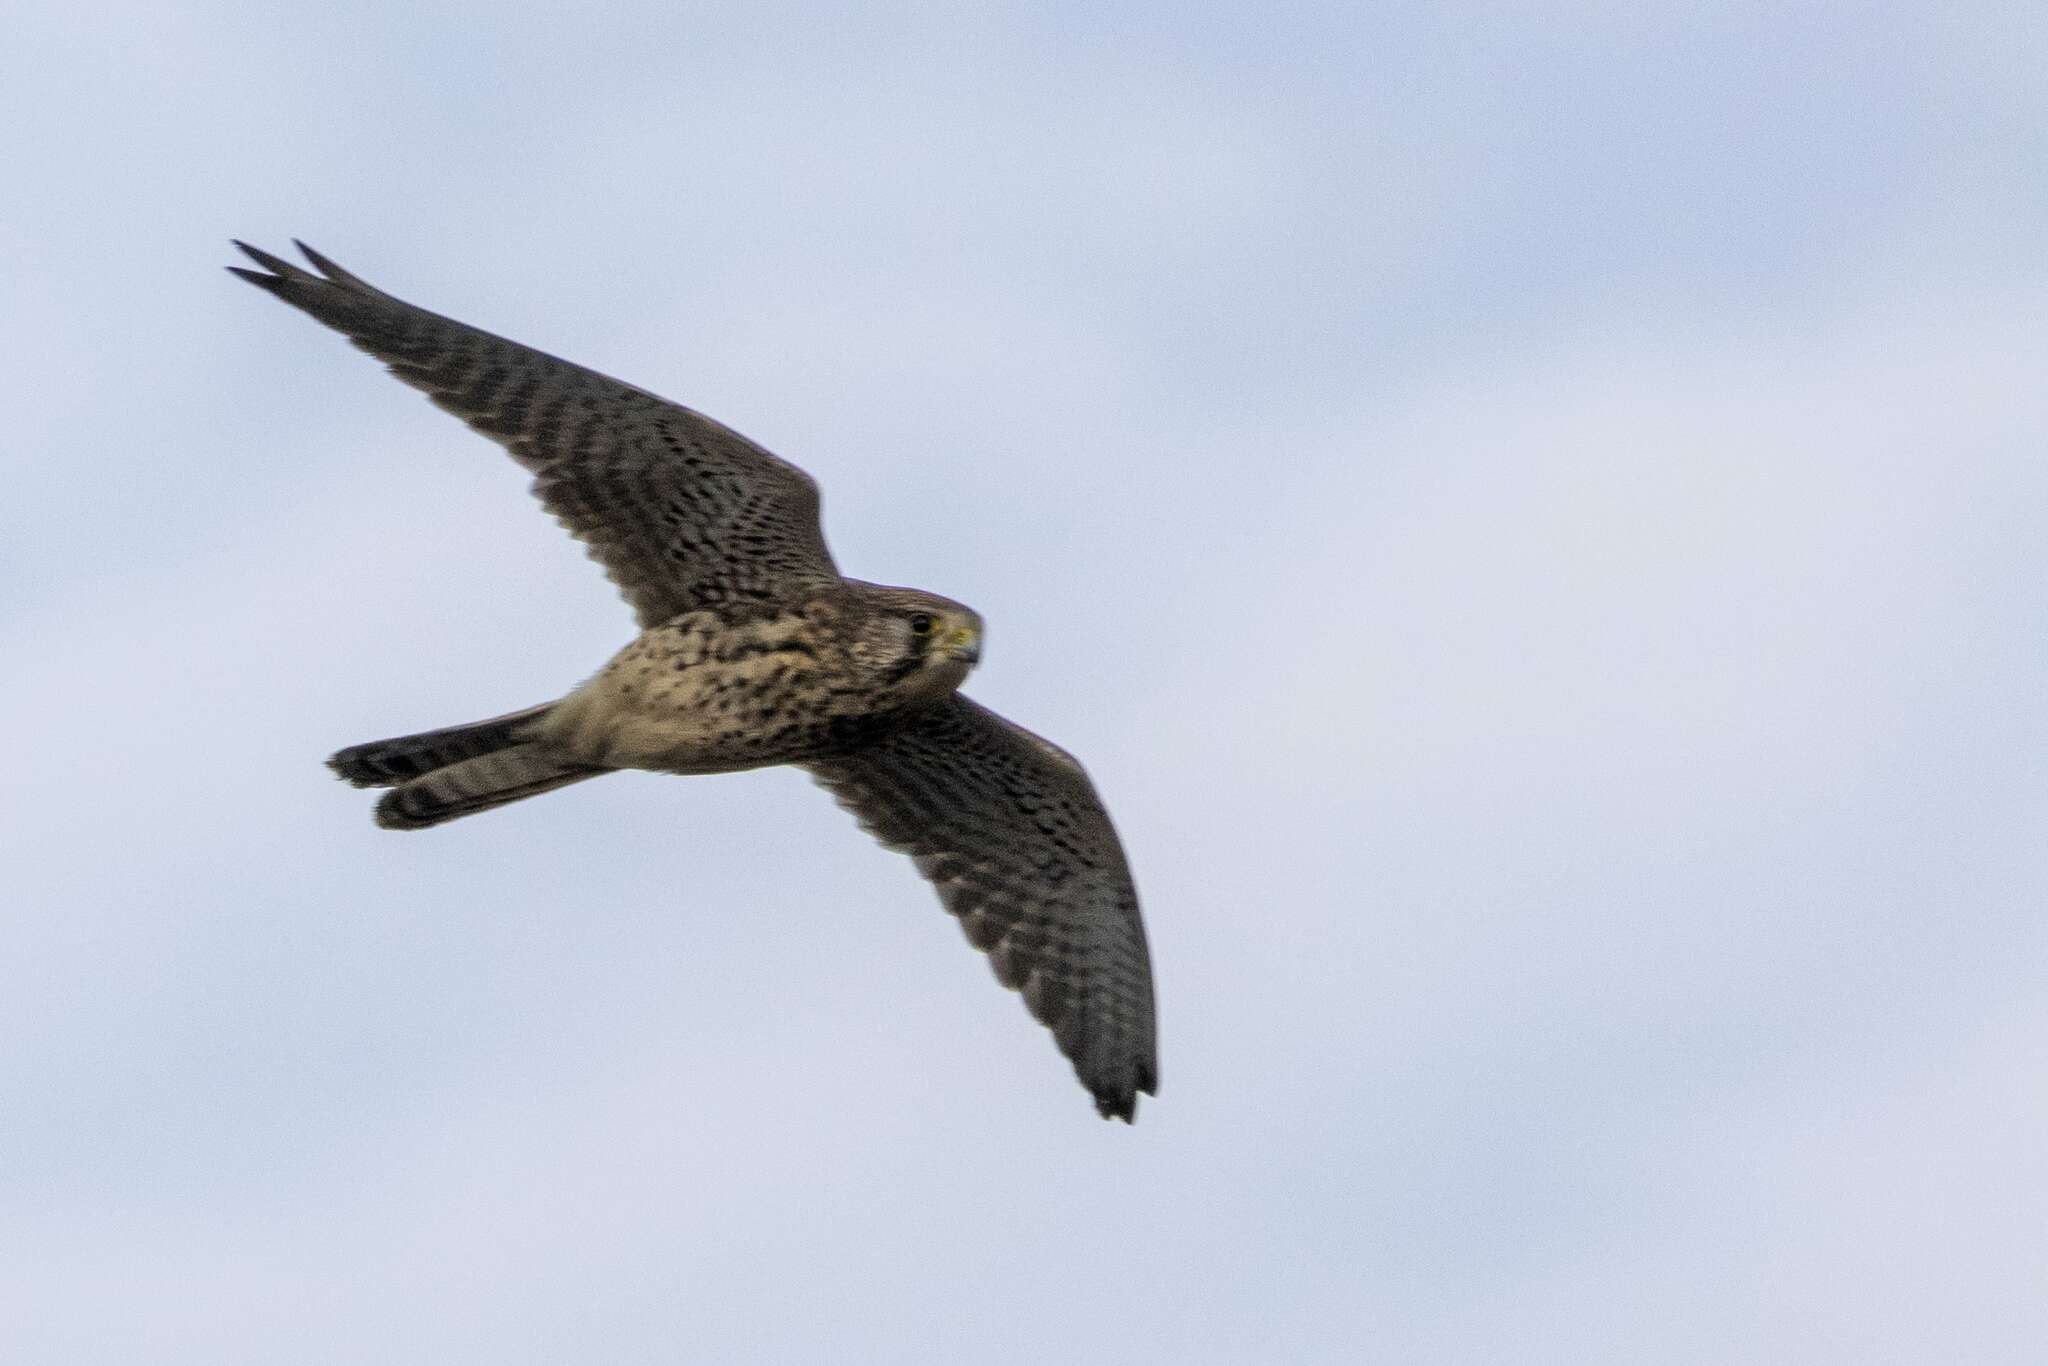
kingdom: Animalia
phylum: Chordata
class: Aves
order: Falconiformes
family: Falconidae
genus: Falco
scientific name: Falco tinnunculus
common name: Common kestrel
